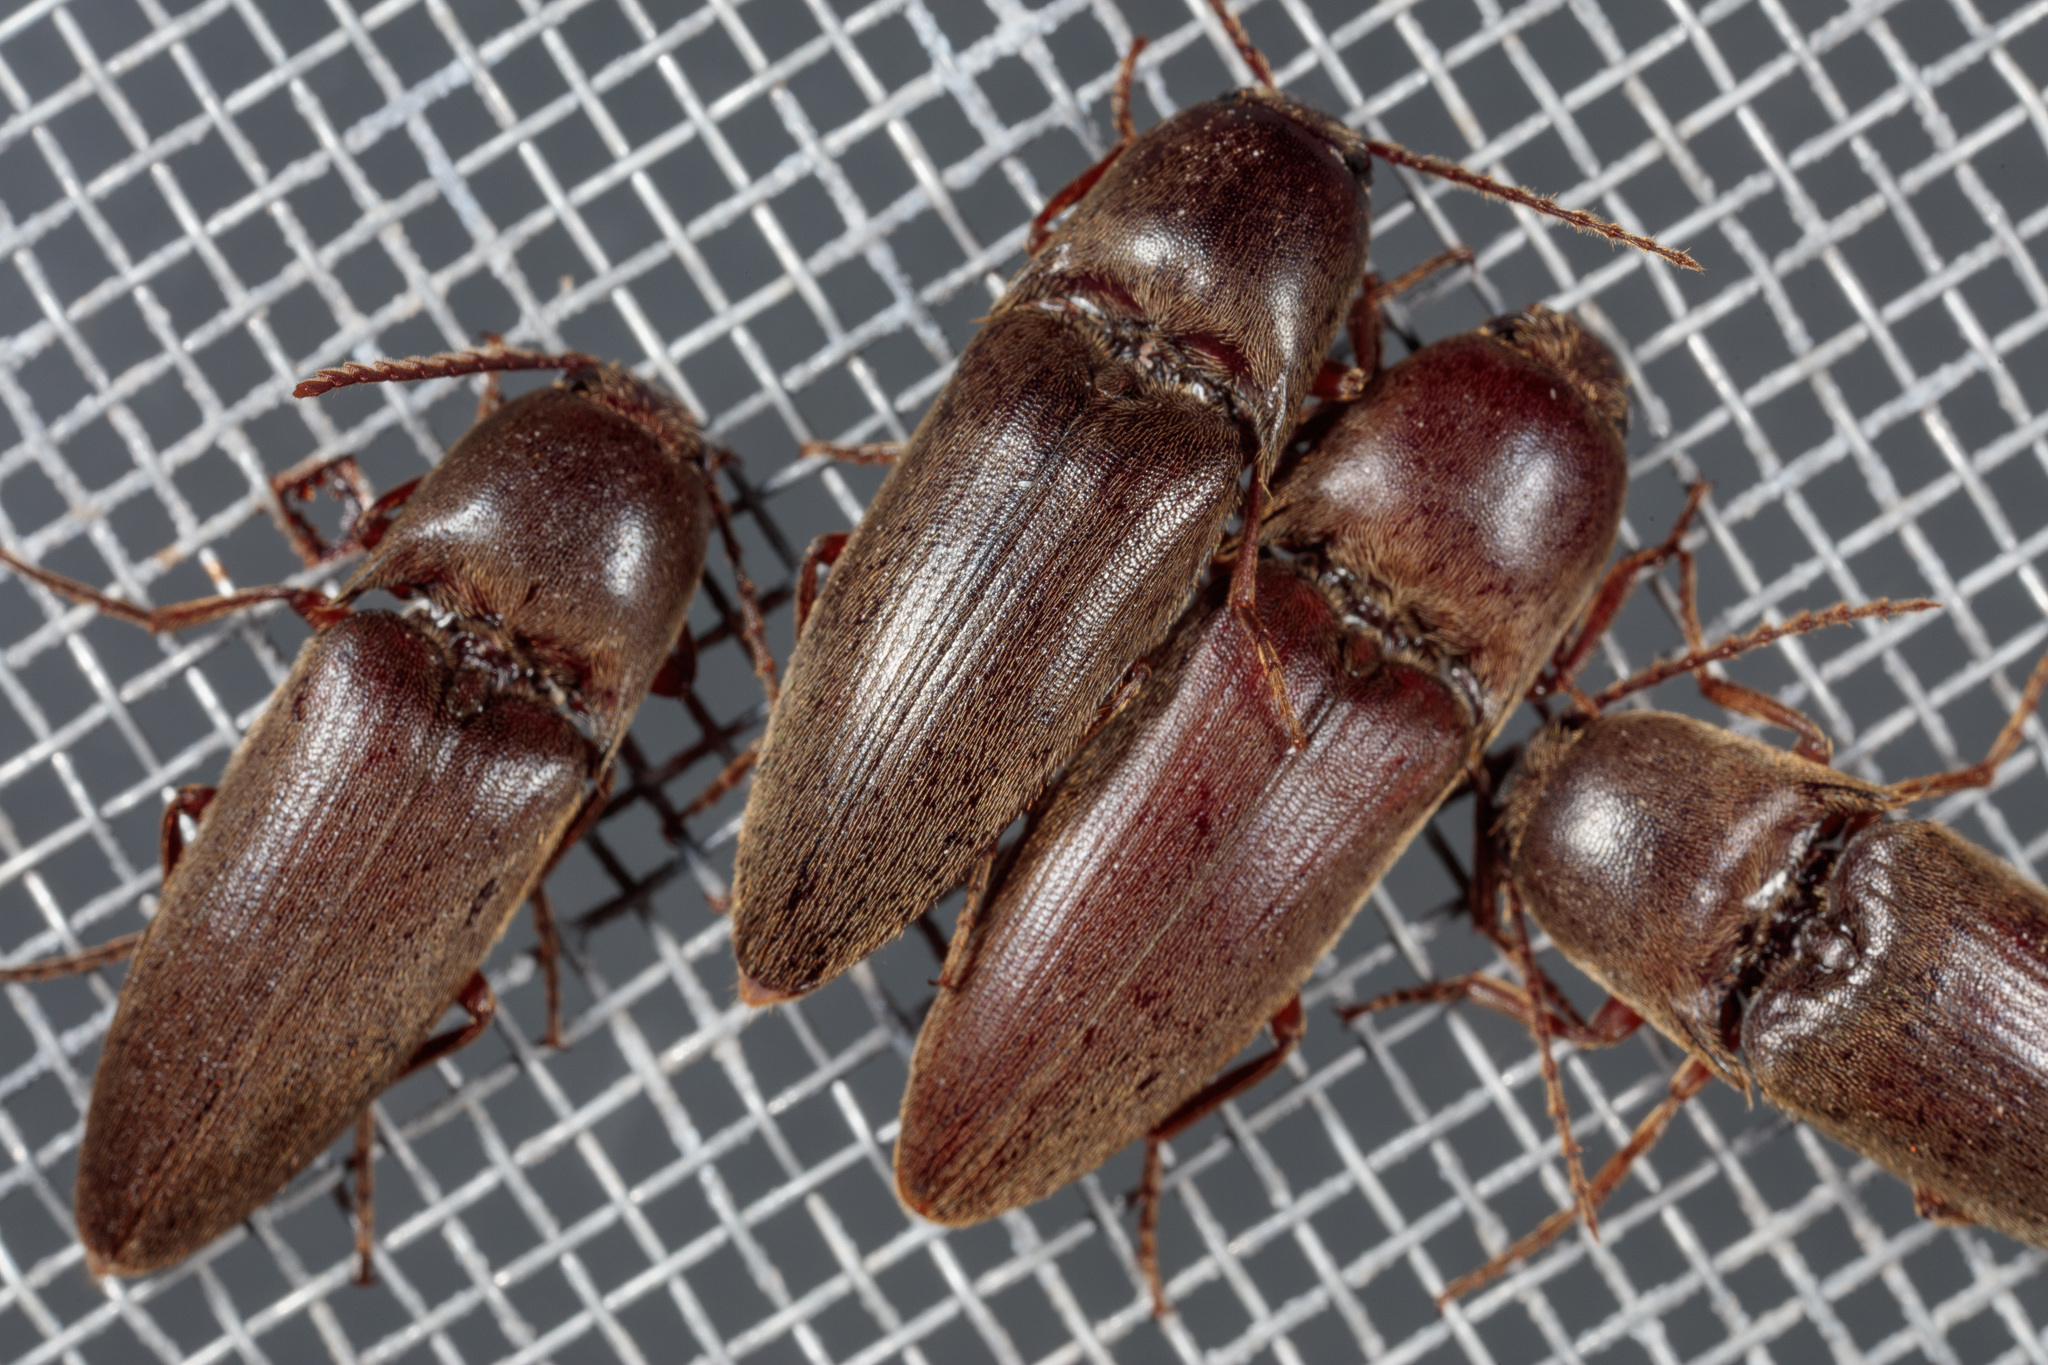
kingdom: Animalia
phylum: Arthropoda
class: Insecta
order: Coleoptera
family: Elateridae
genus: Diplostethus
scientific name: Diplostethus
